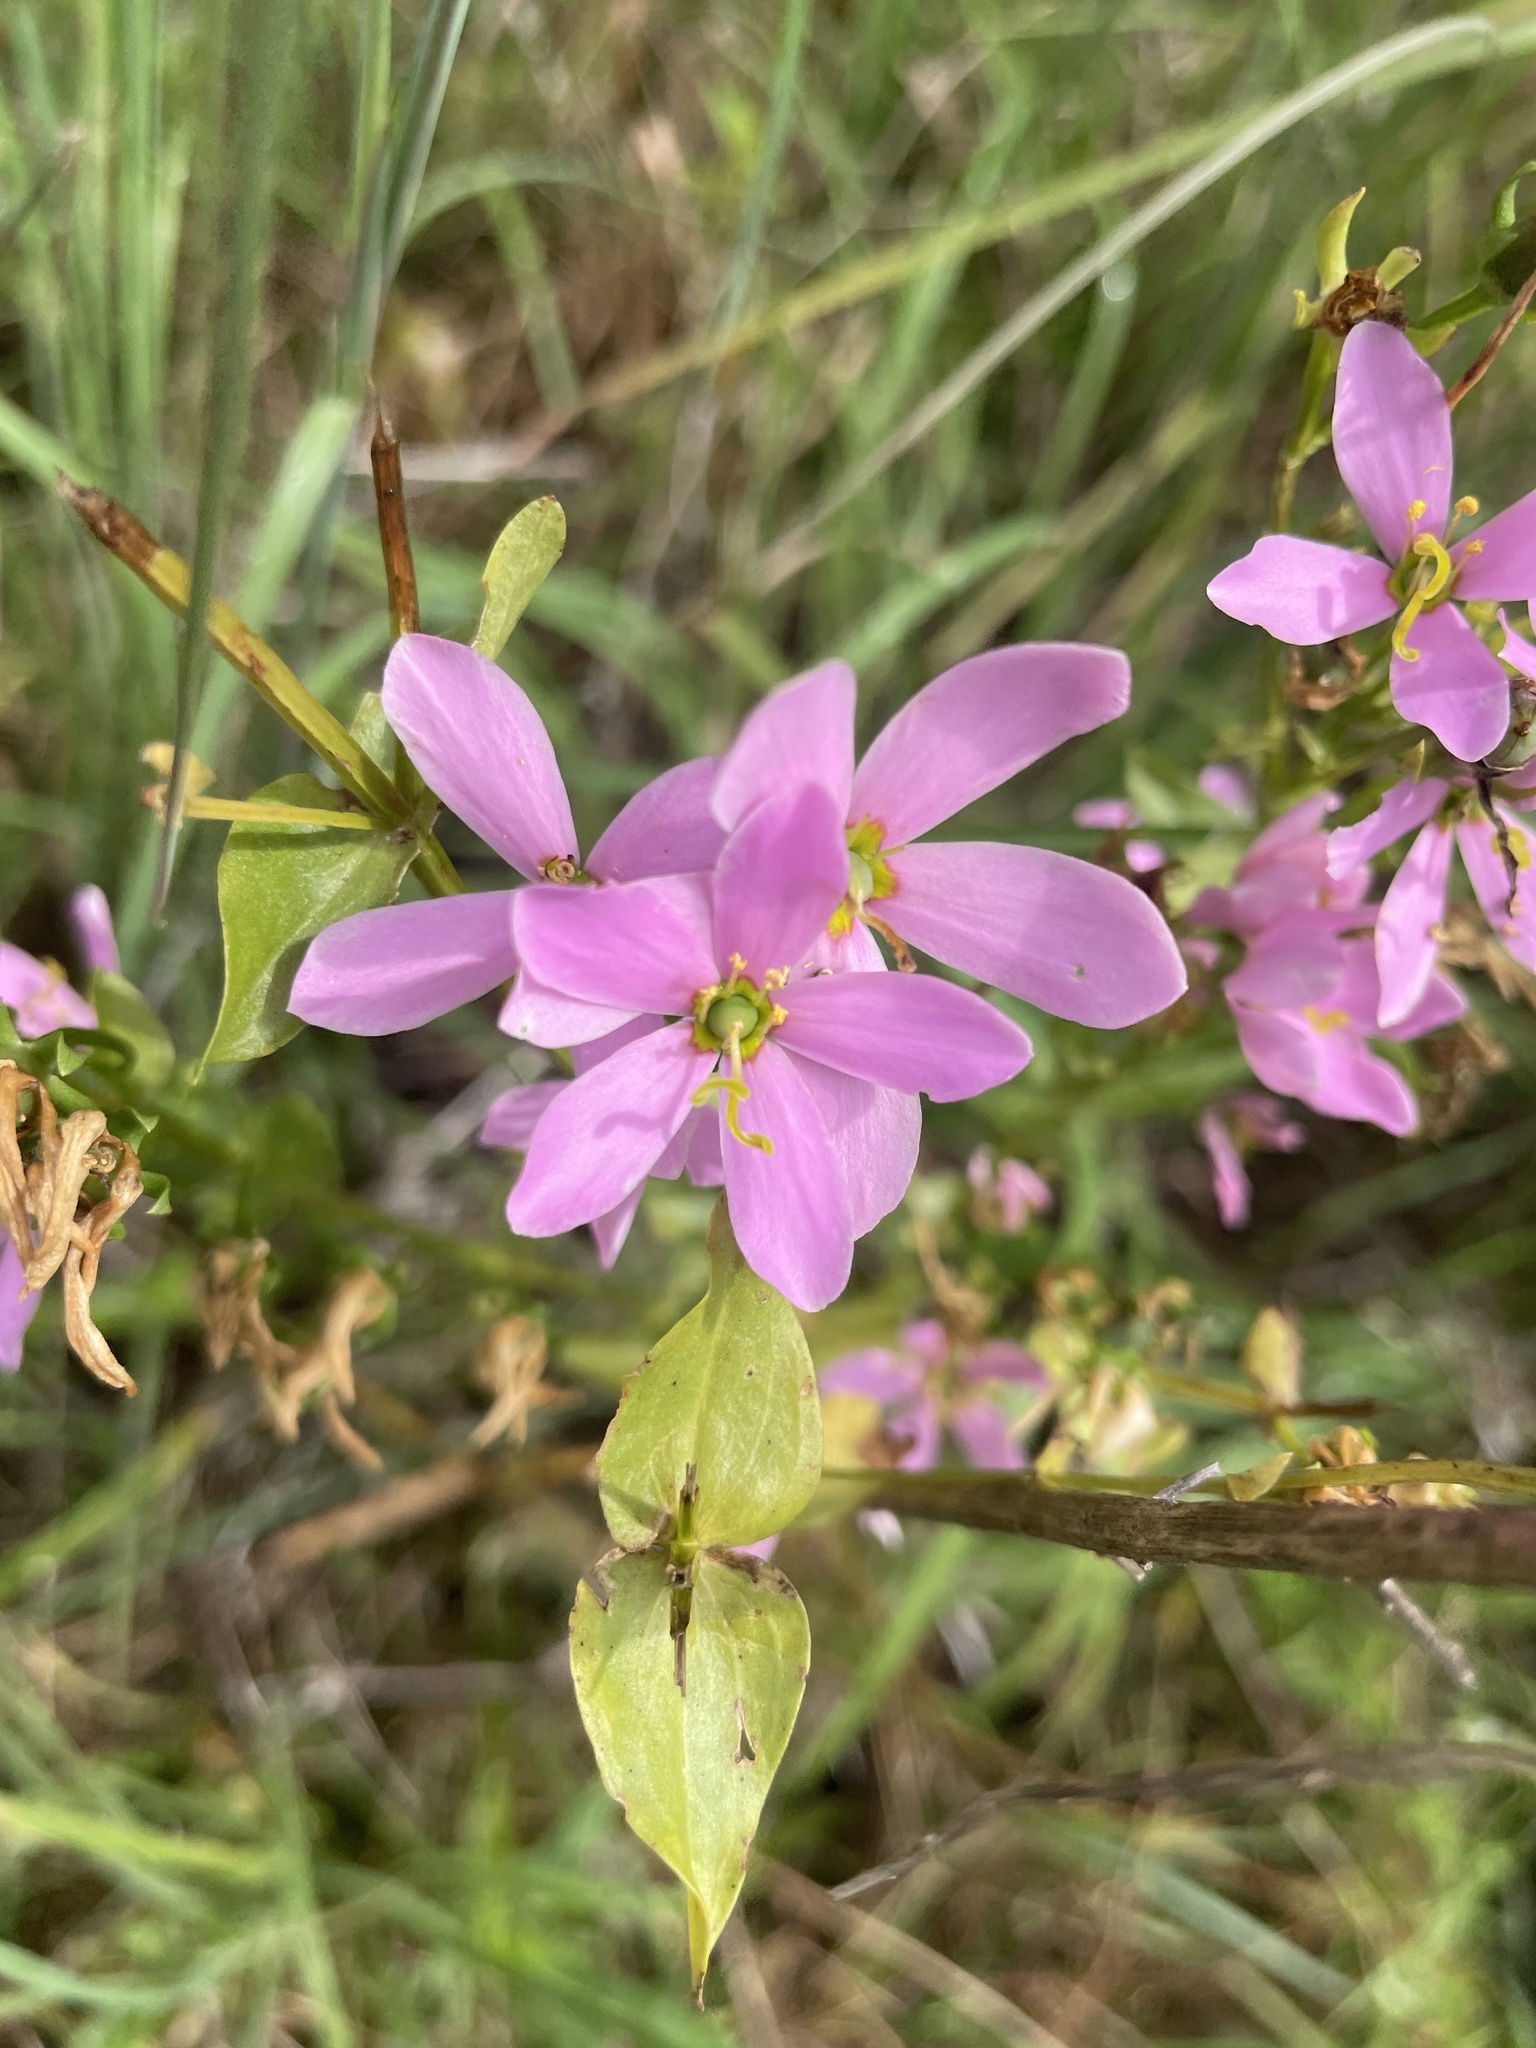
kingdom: Plantae
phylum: Tracheophyta
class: Magnoliopsida
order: Gentianales
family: Gentianaceae
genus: Sabatia
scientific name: Sabatia angularis
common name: Rose-pink
